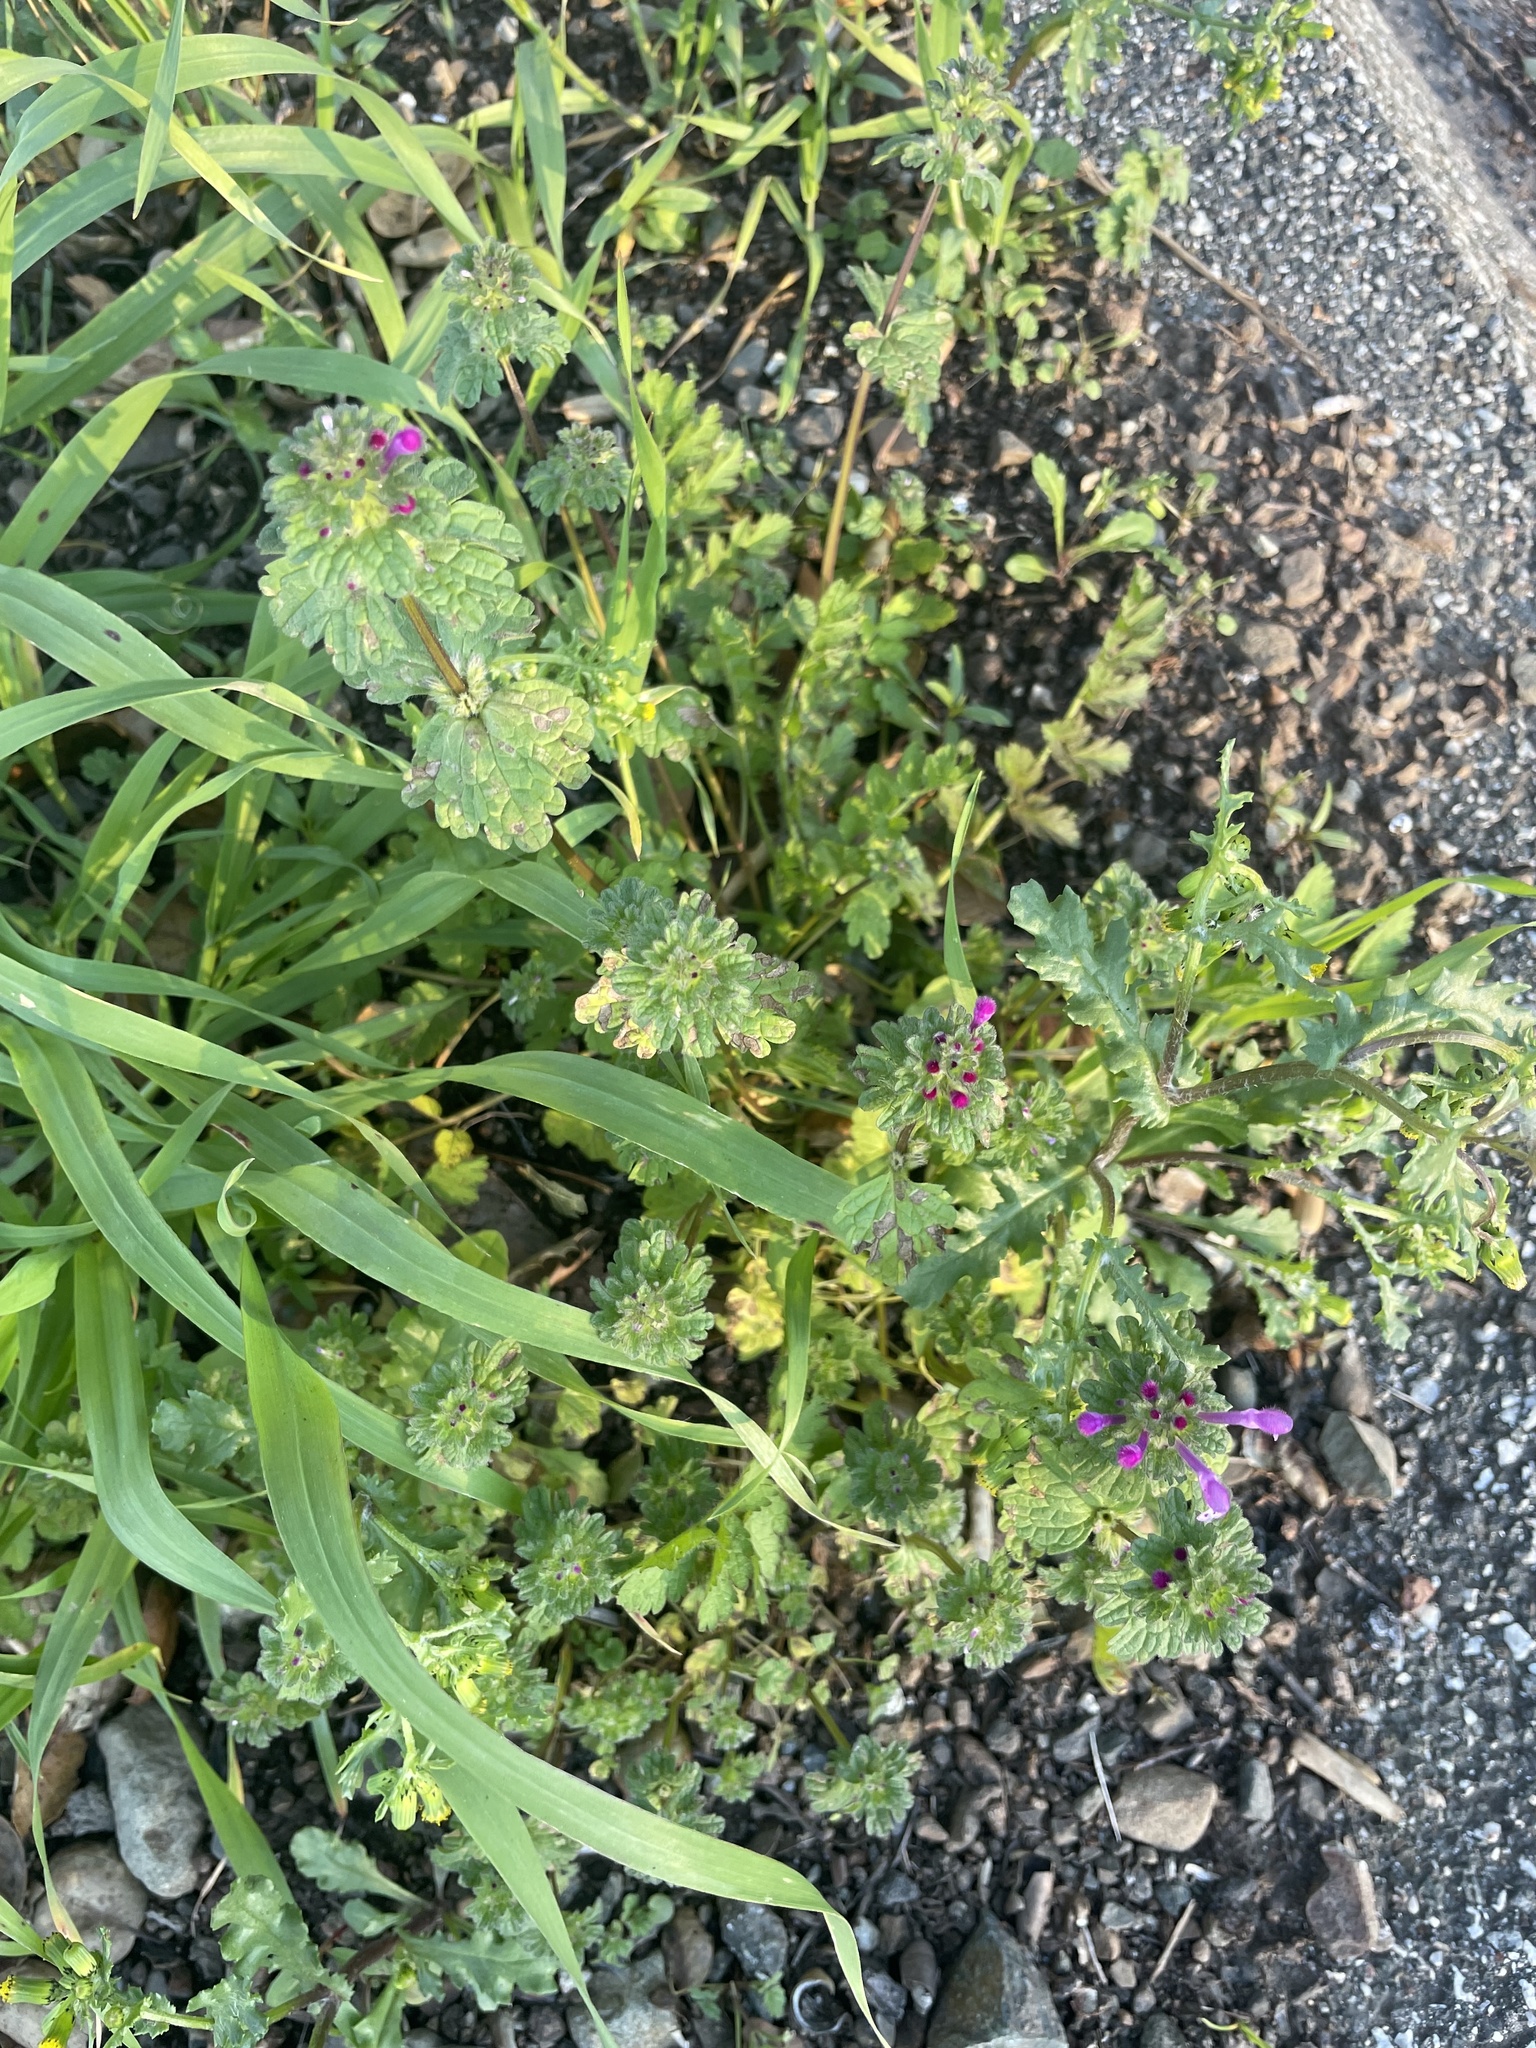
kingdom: Plantae
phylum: Tracheophyta
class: Magnoliopsida
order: Lamiales
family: Lamiaceae
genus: Lamium
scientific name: Lamium amplexicaule
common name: Henbit dead-nettle
